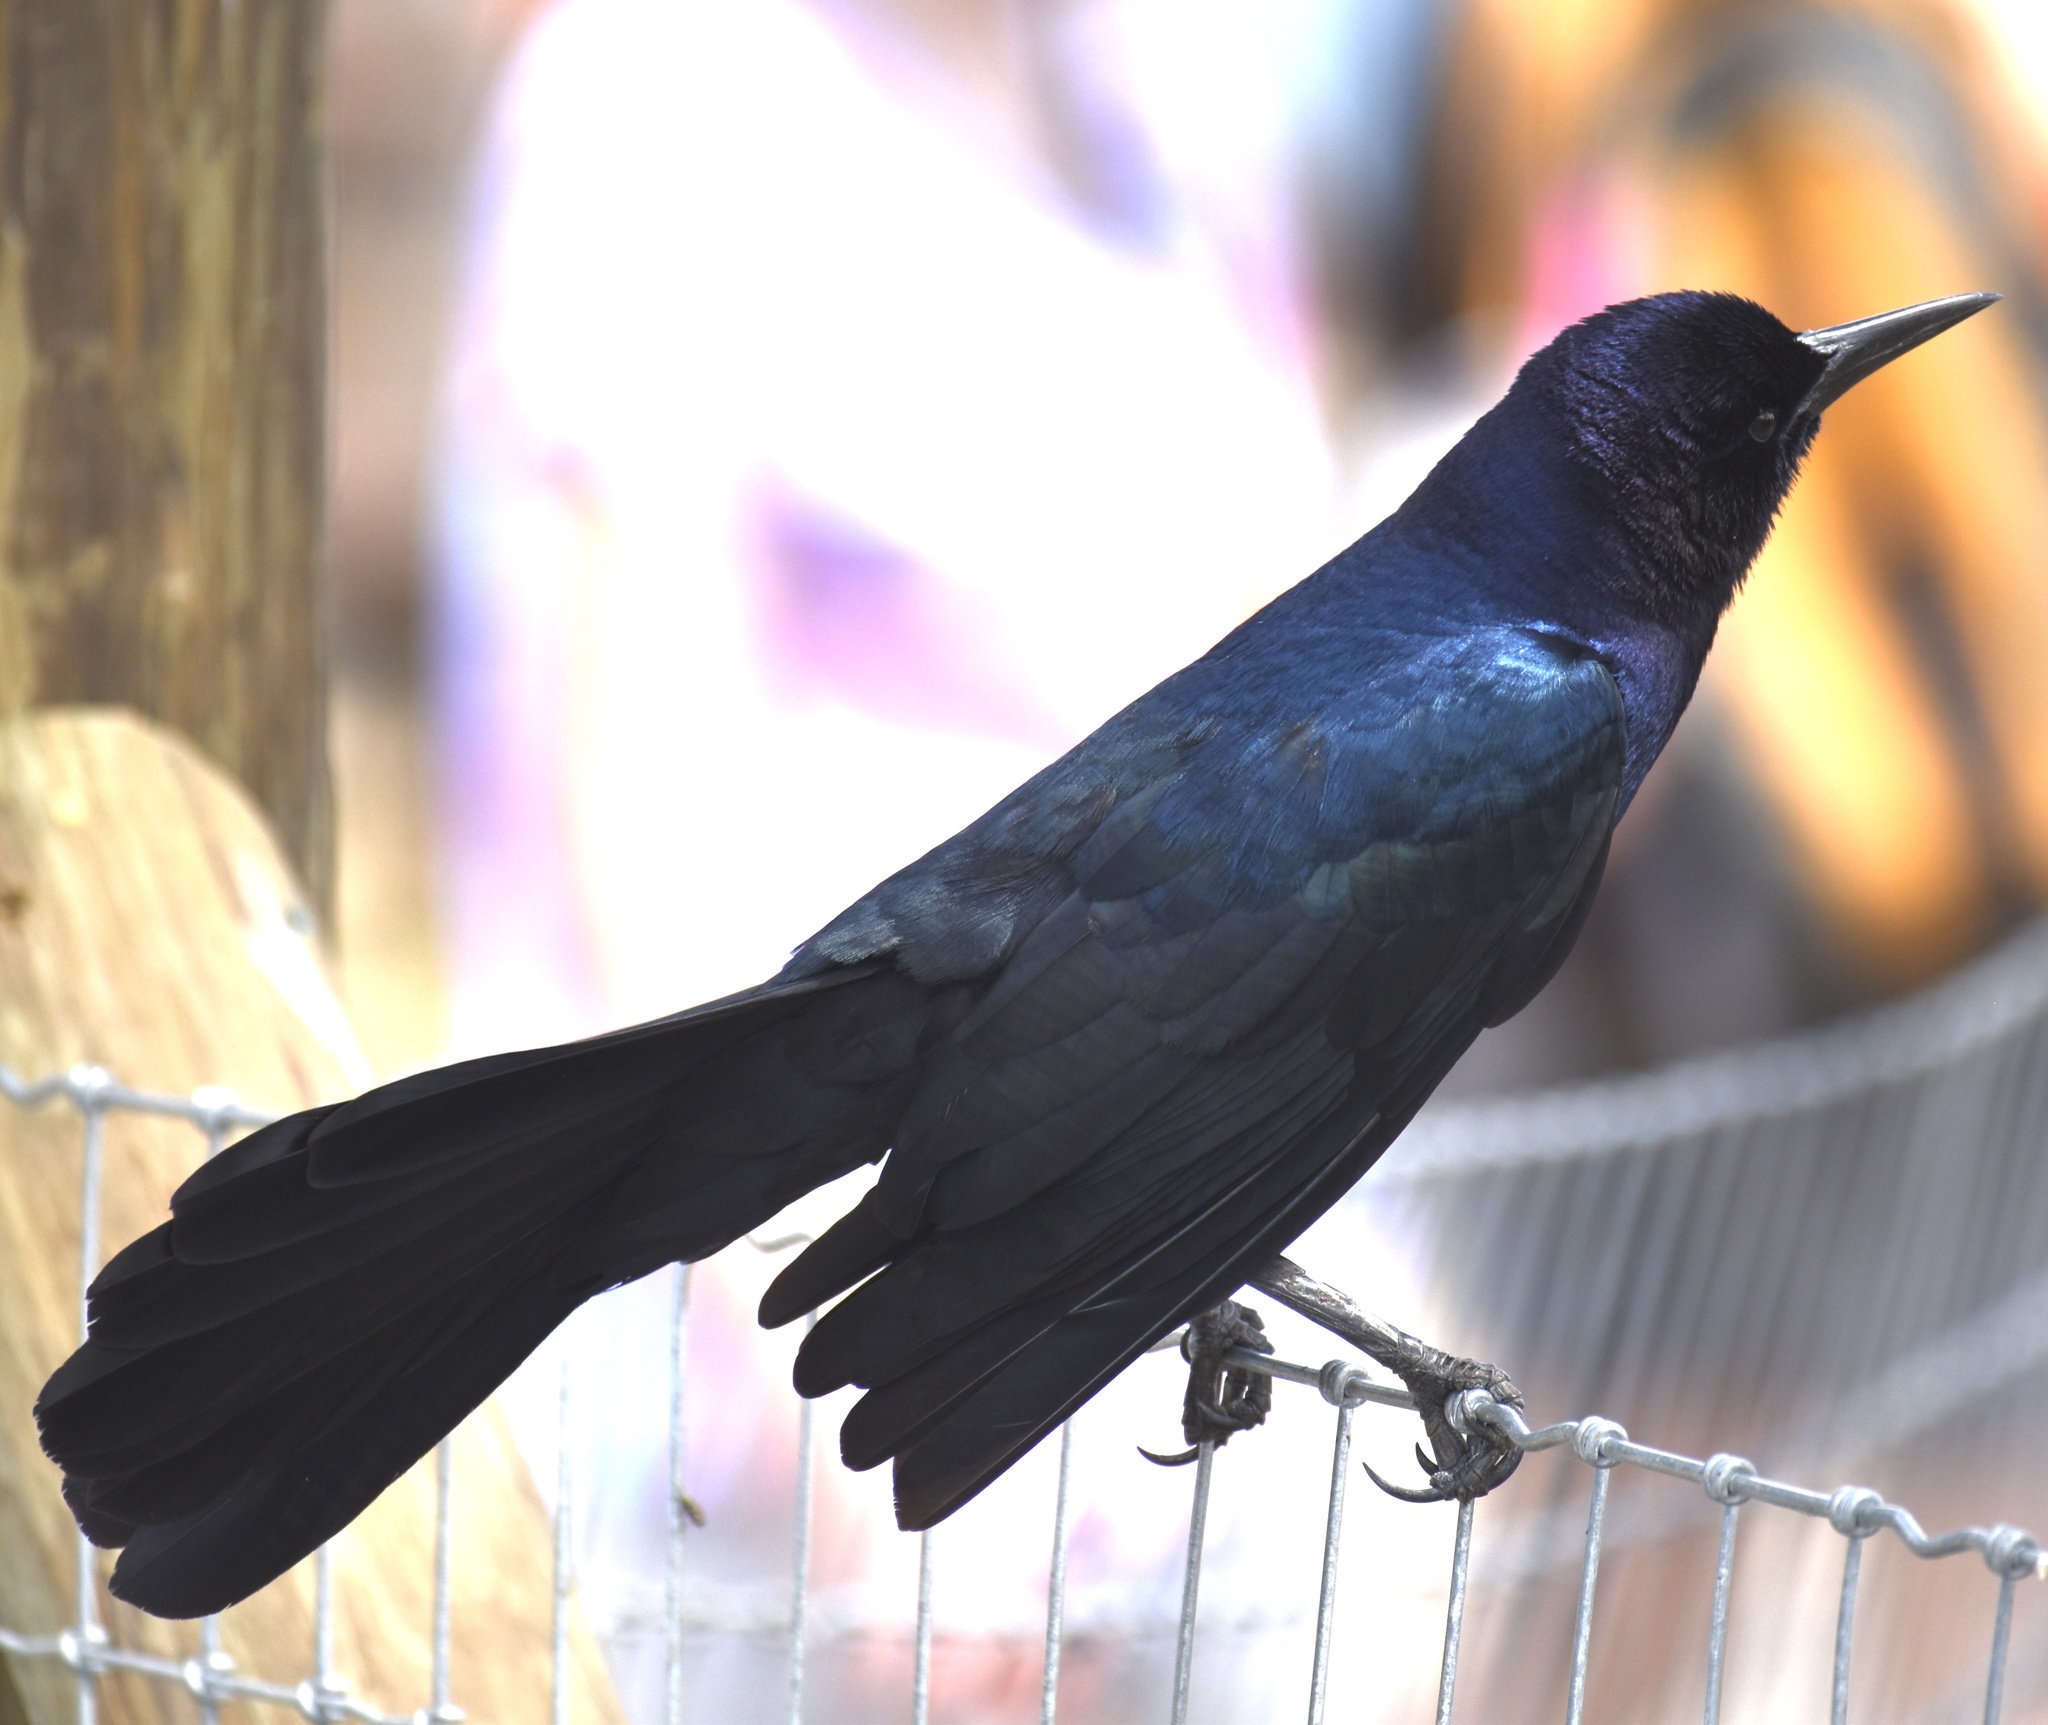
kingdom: Animalia
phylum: Chordata
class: Aves
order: Passeriformes
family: Icteridae
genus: Quiscalus
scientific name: Quiscalus major
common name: Boat-tailed grackle
